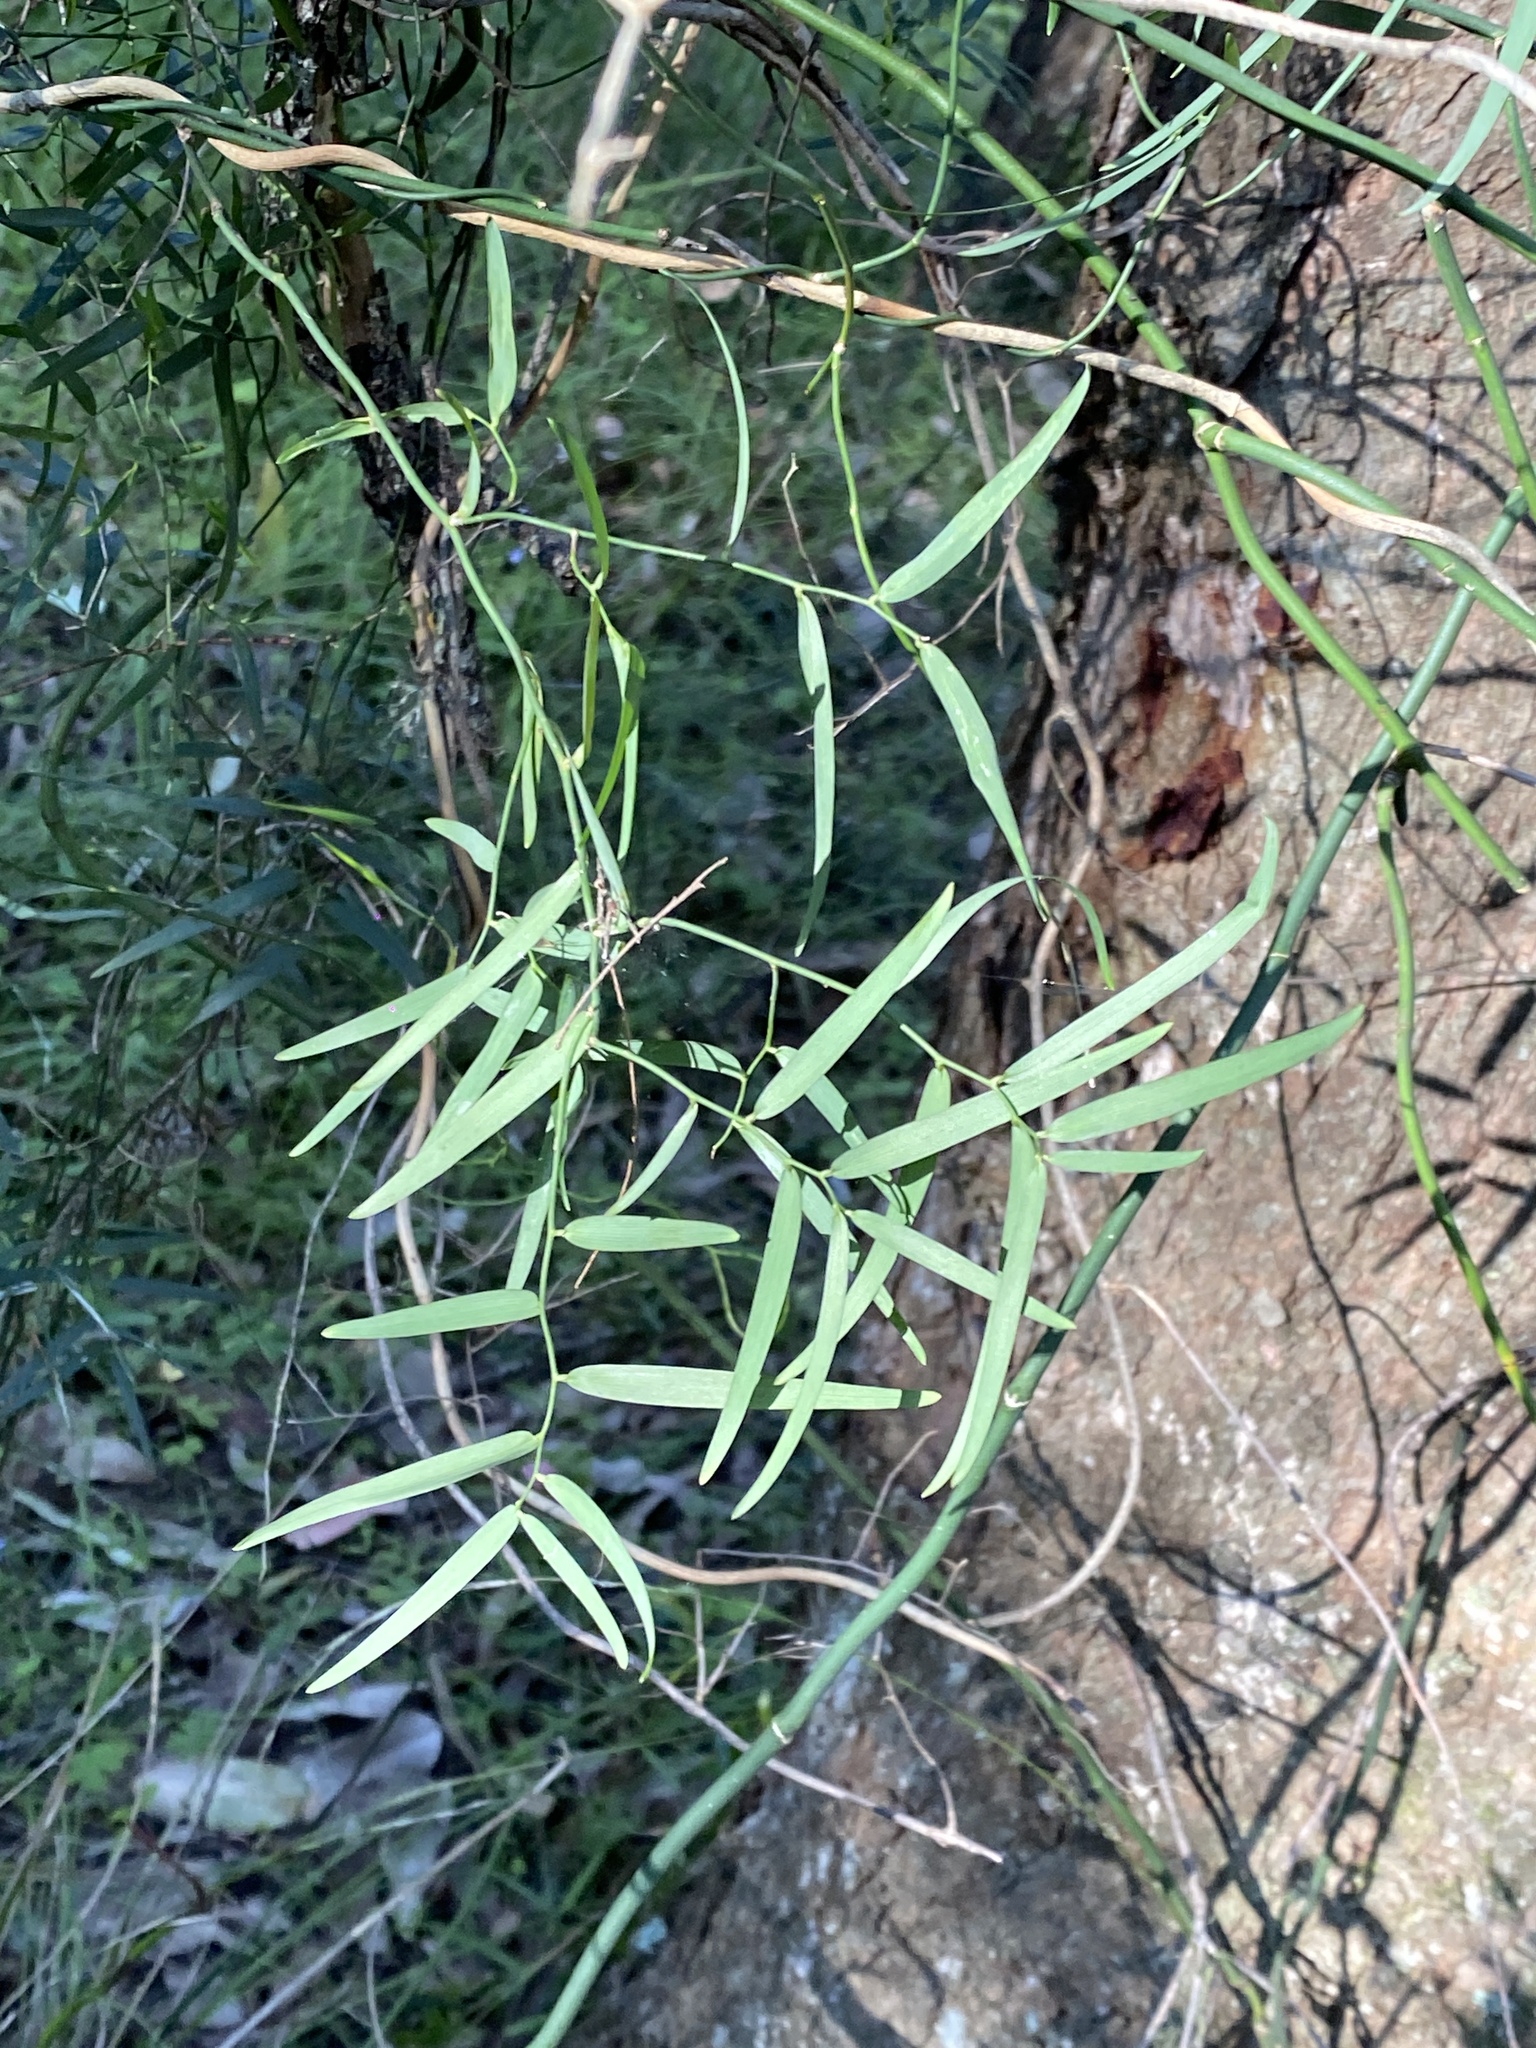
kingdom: Plantae
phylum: Tracheophyta
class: Liliopsida
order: Asparagales
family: Asphodelaceae
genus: Geitonoplesium
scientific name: Geitonoplesium cymosum
